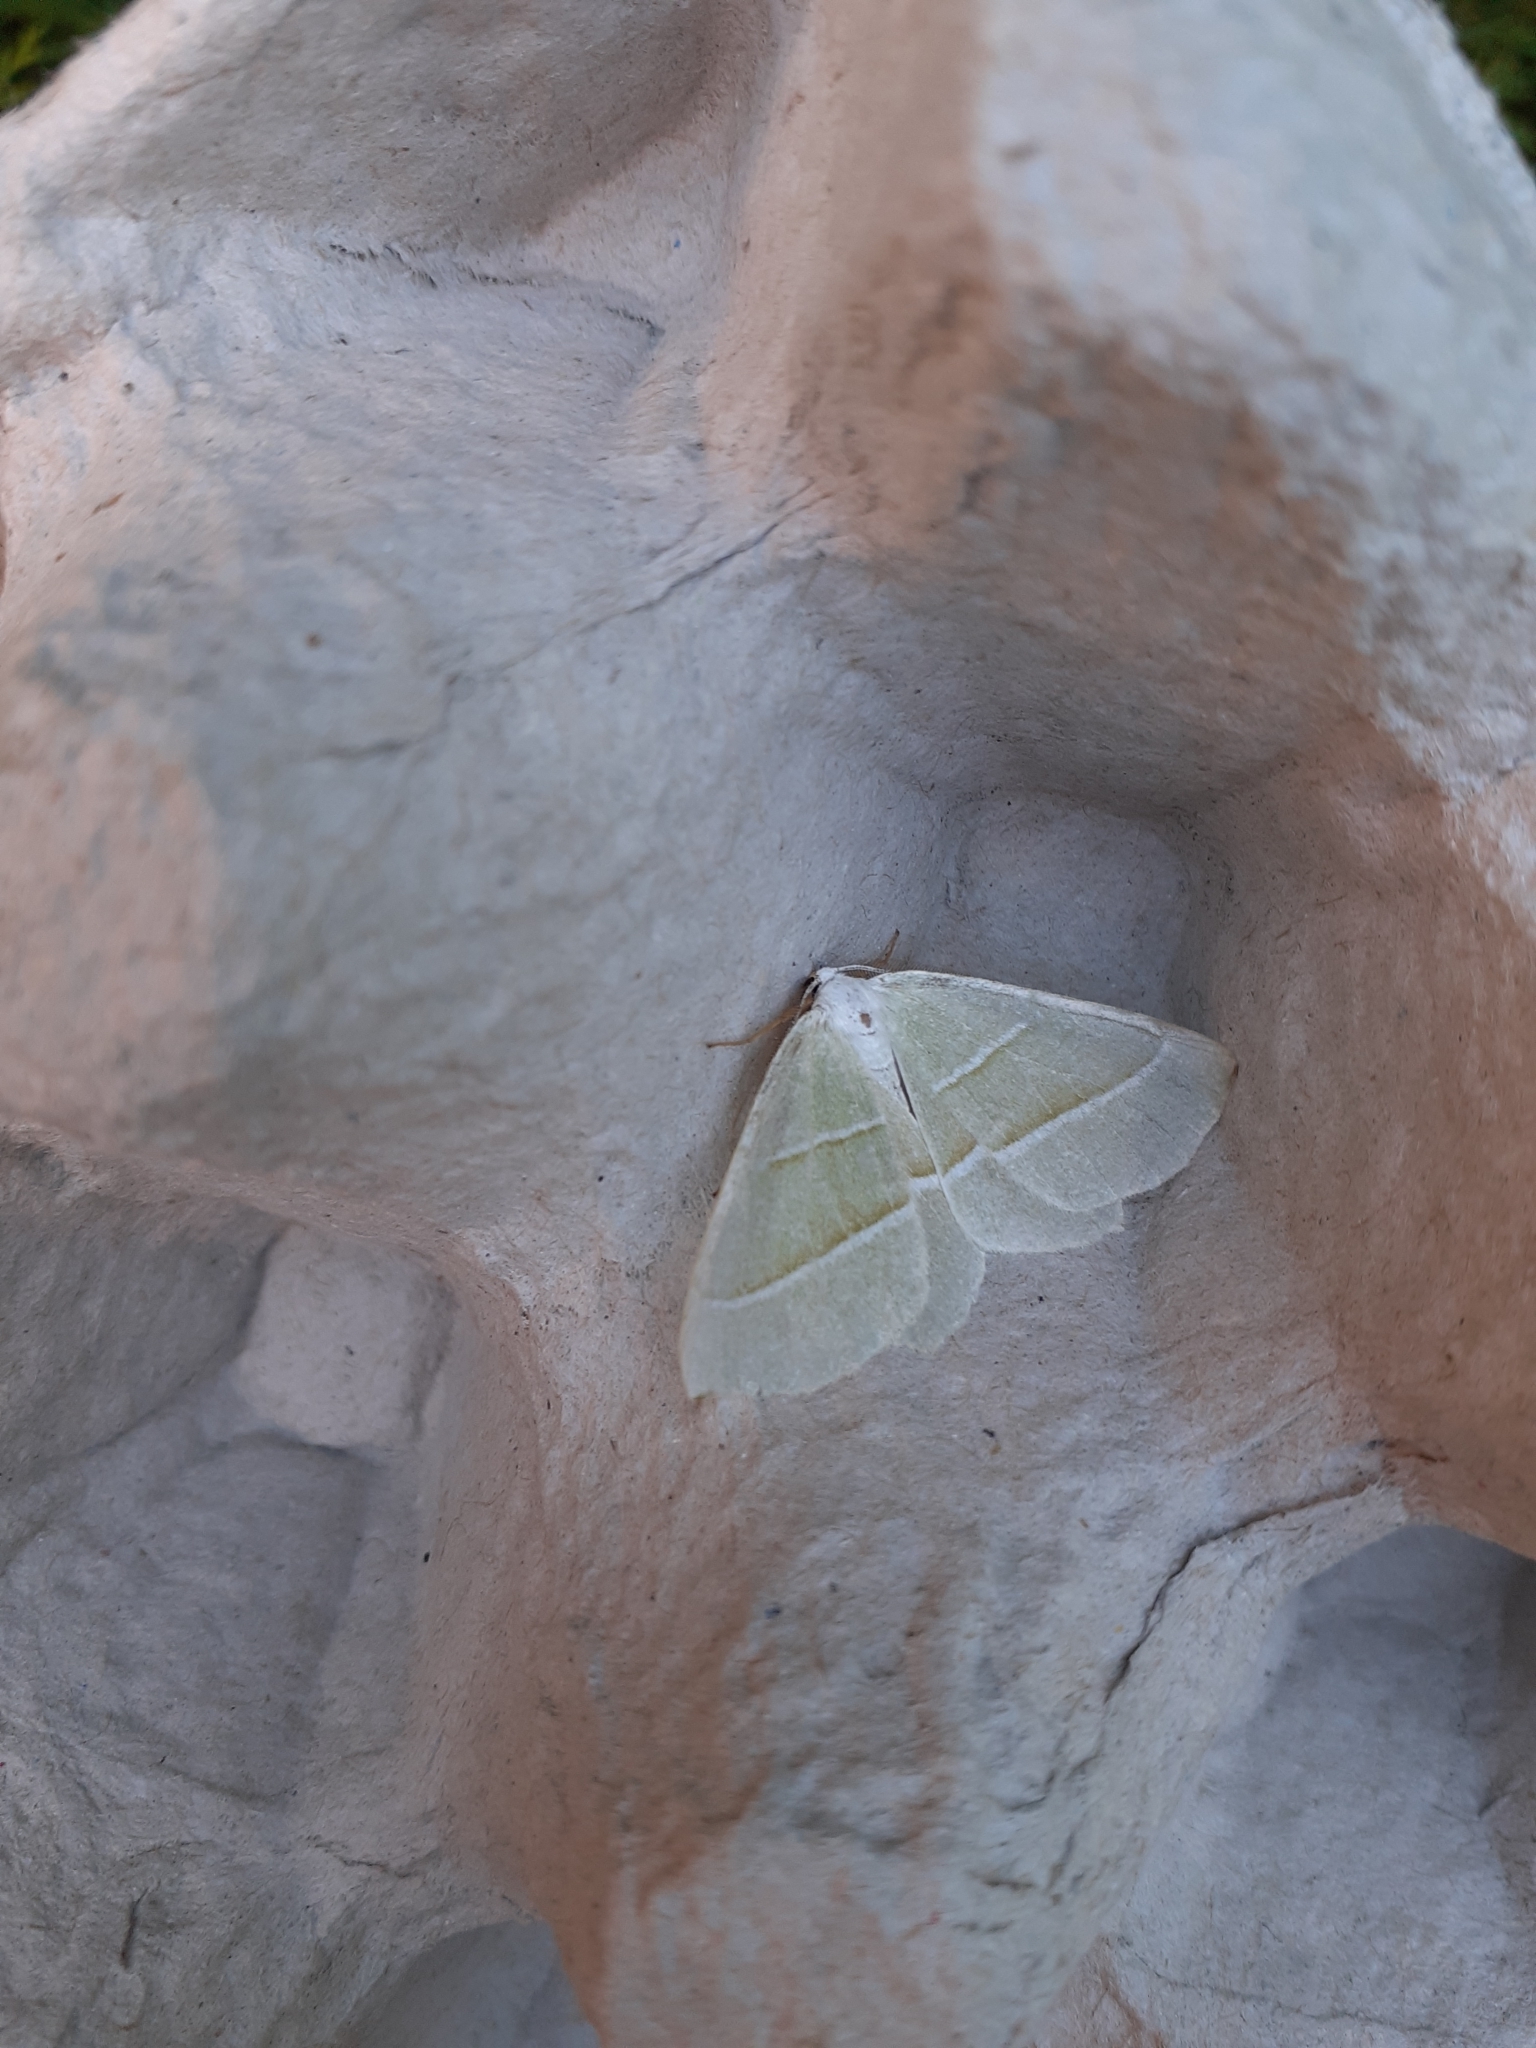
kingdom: Animalia
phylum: Arthropoda
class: Insecta
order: Lepidoptera
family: Geometridae
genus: Campaea
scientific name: Campaea margaritaria
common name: Light emerald
